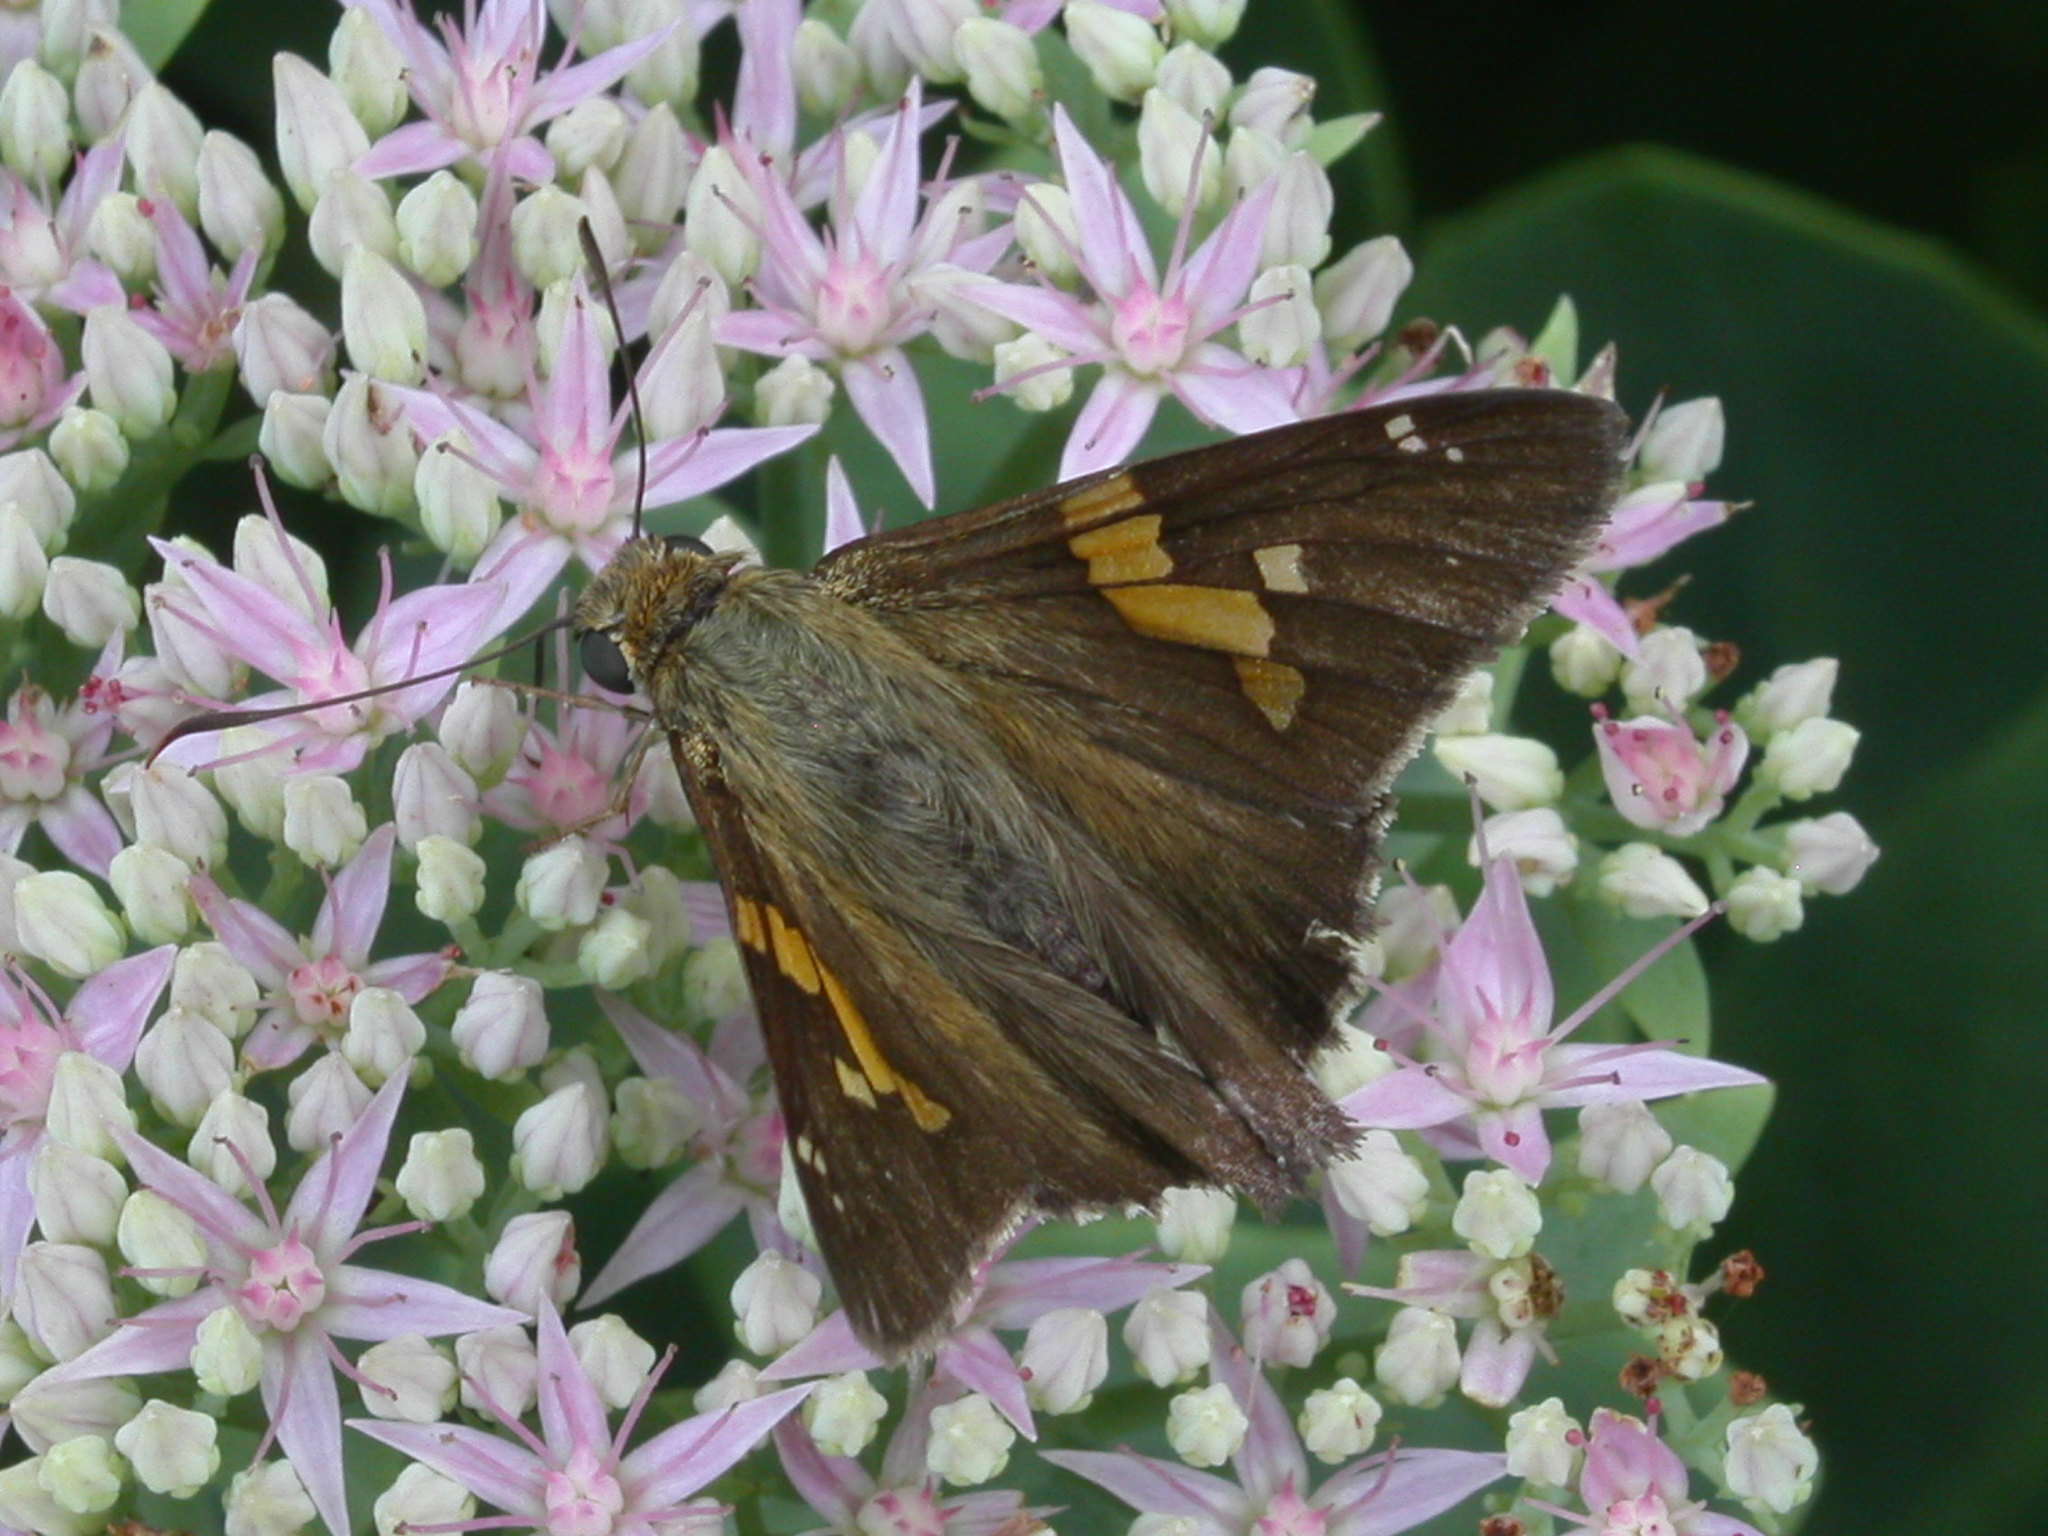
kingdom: Animalia
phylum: Arthropoda
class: Insecta
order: Lepidoptera
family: Hesperiidae
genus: Epargyreus
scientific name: Epargyreus clarus
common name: Silver-spotted skipper
